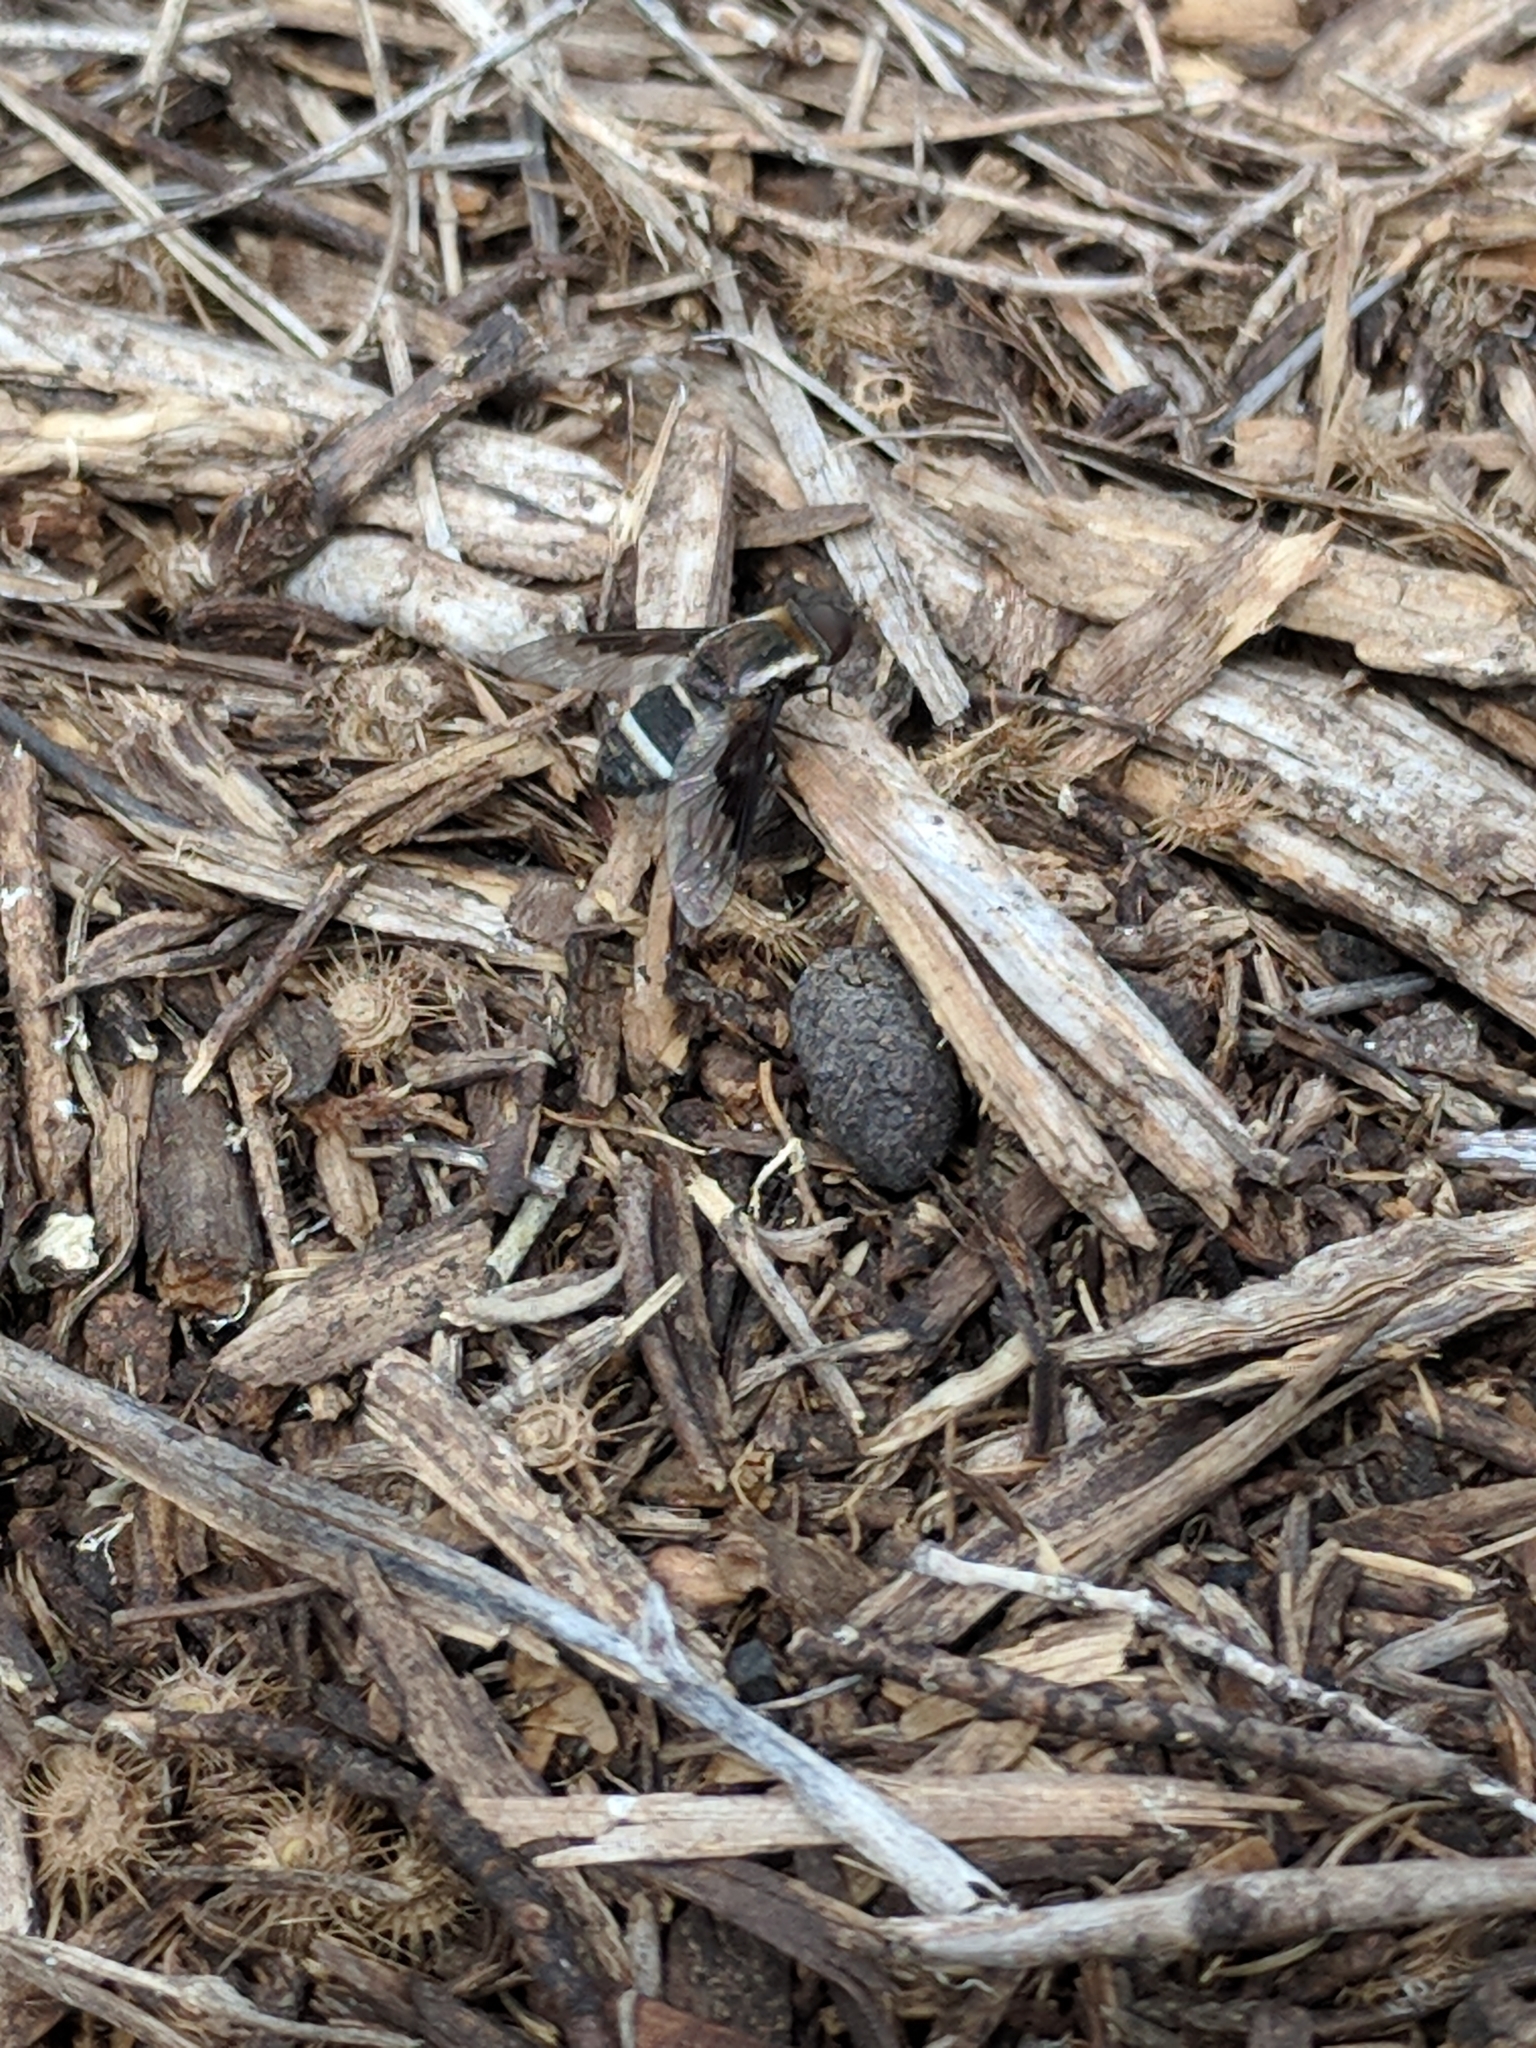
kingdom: Animalia
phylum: Arthropoda
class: Insecta
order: Diptera
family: Bombyliidae
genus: Hemipenthes
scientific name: Hemipenthes lepidotus
